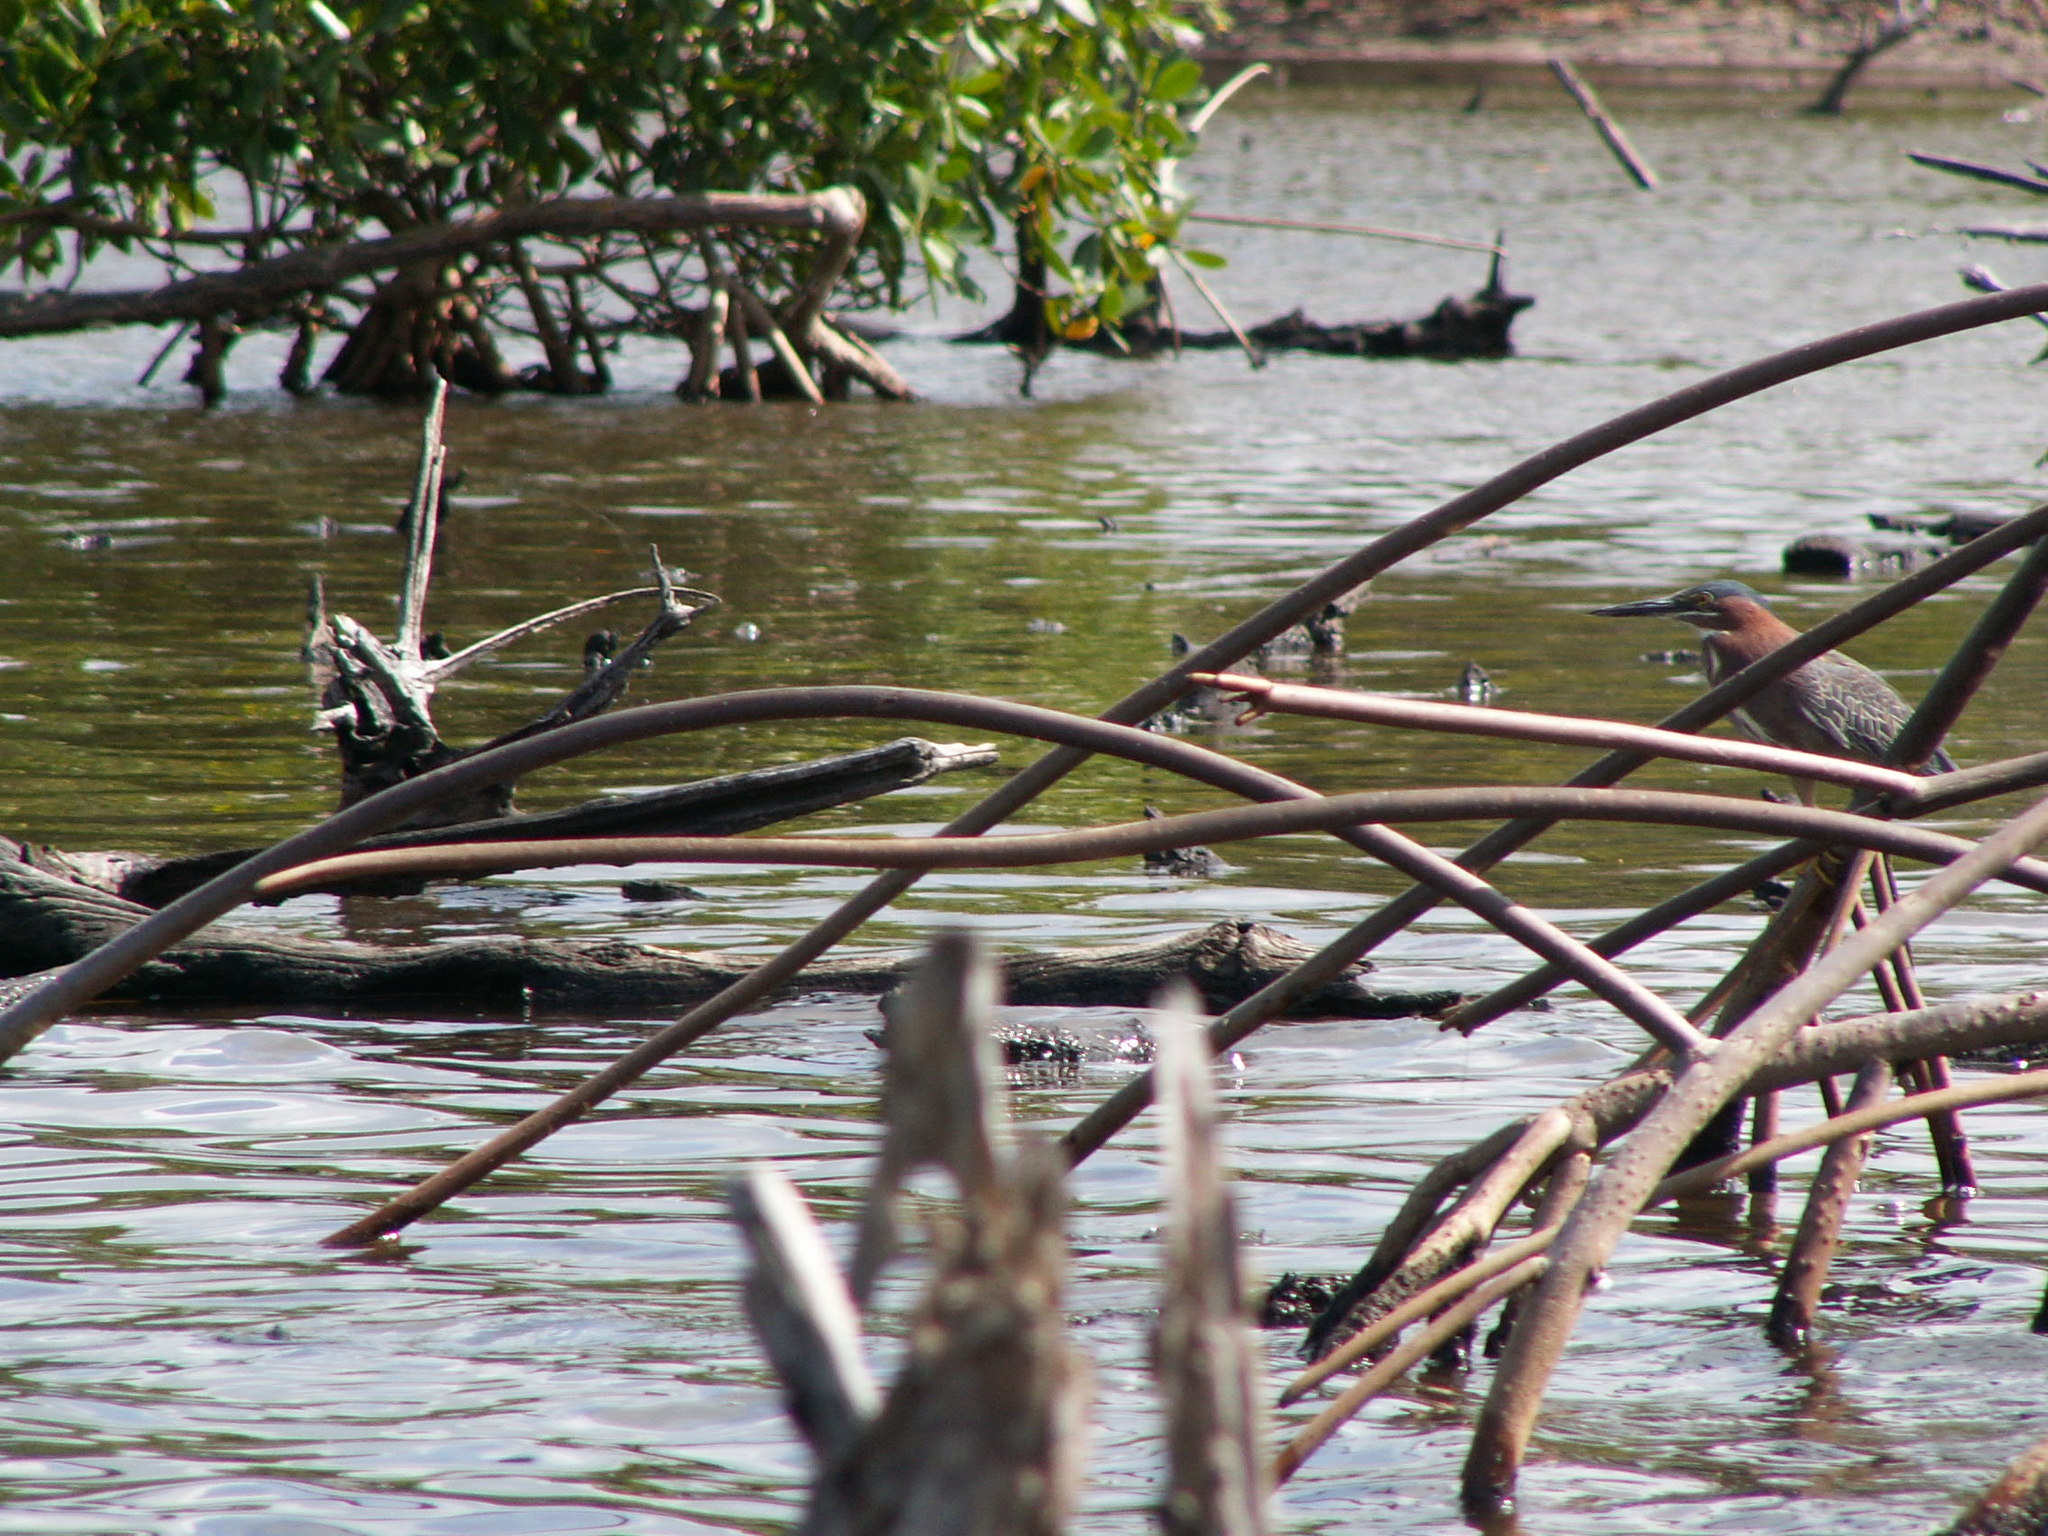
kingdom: Animalia
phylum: Chordata
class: Aves
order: Pelecaniformes
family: Ardeidae
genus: Butorides
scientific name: Butorides virescens
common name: Green heron
